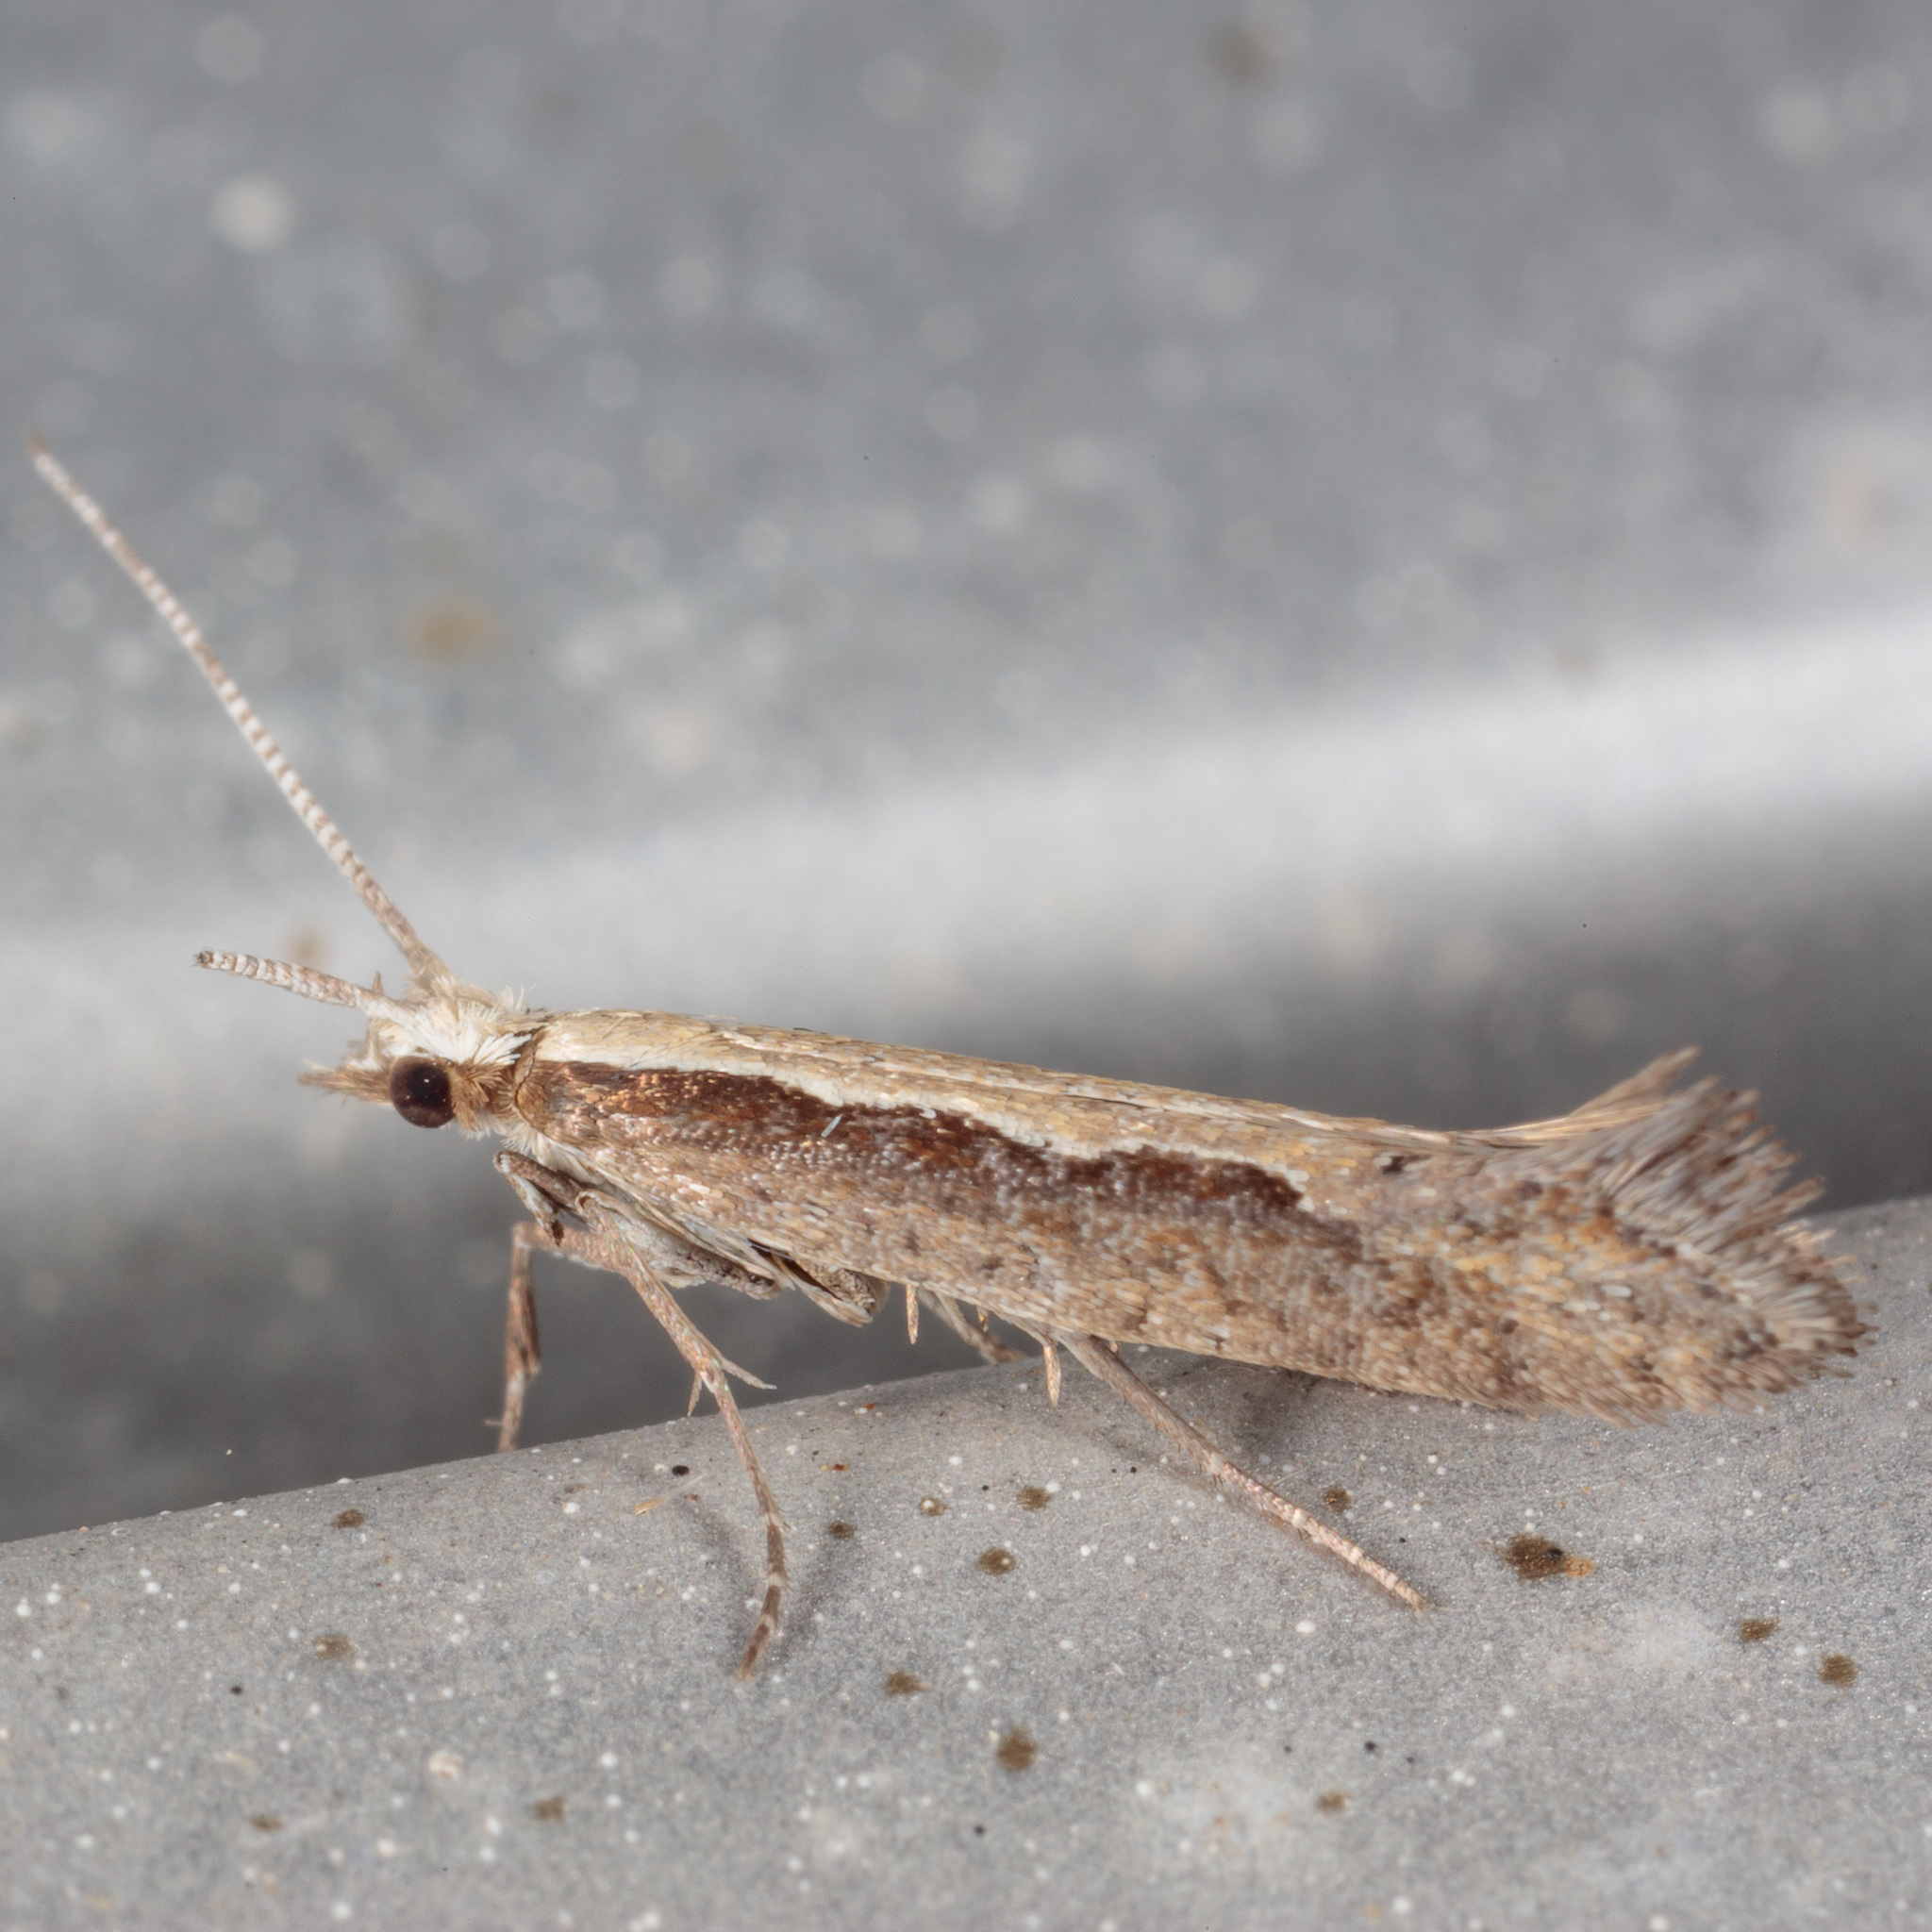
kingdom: Animalia
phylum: Arthropoda
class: Insecta
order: Lepidoptera
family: Plutellidae
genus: Plutella
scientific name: Plutella xylostella
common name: Diamond-back moth
